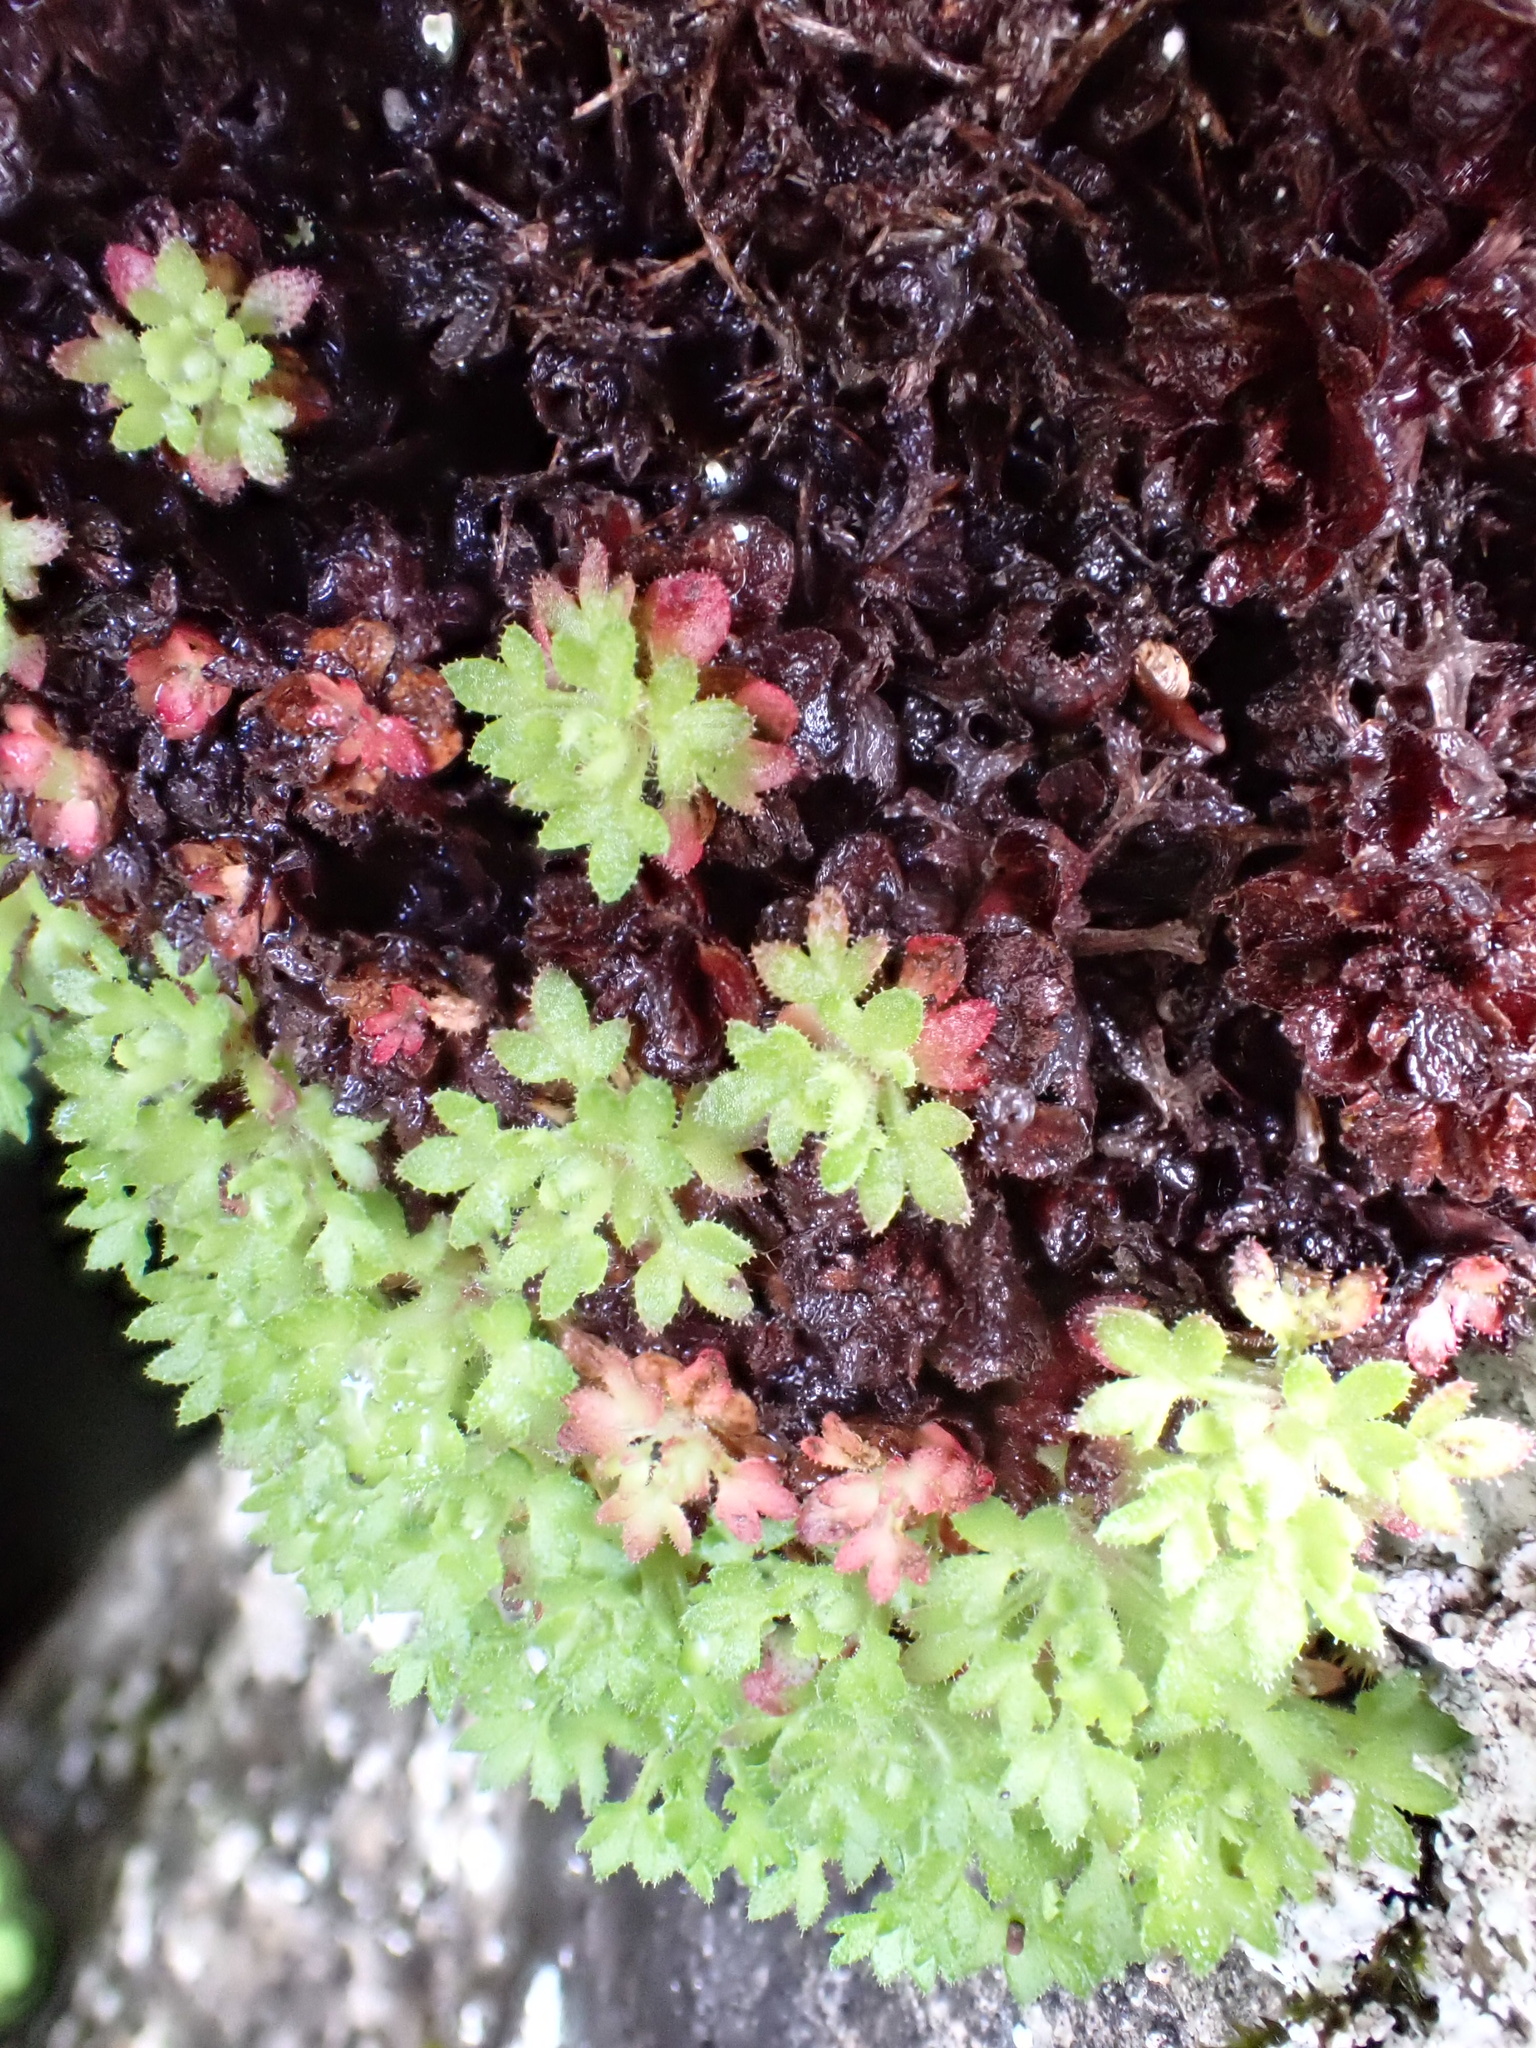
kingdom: Plantae
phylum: Tracheophyta
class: Magnoliopsida
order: Saxifragales
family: Saxifragaceae
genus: Saxifraga
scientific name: Saxifraga globulifera
